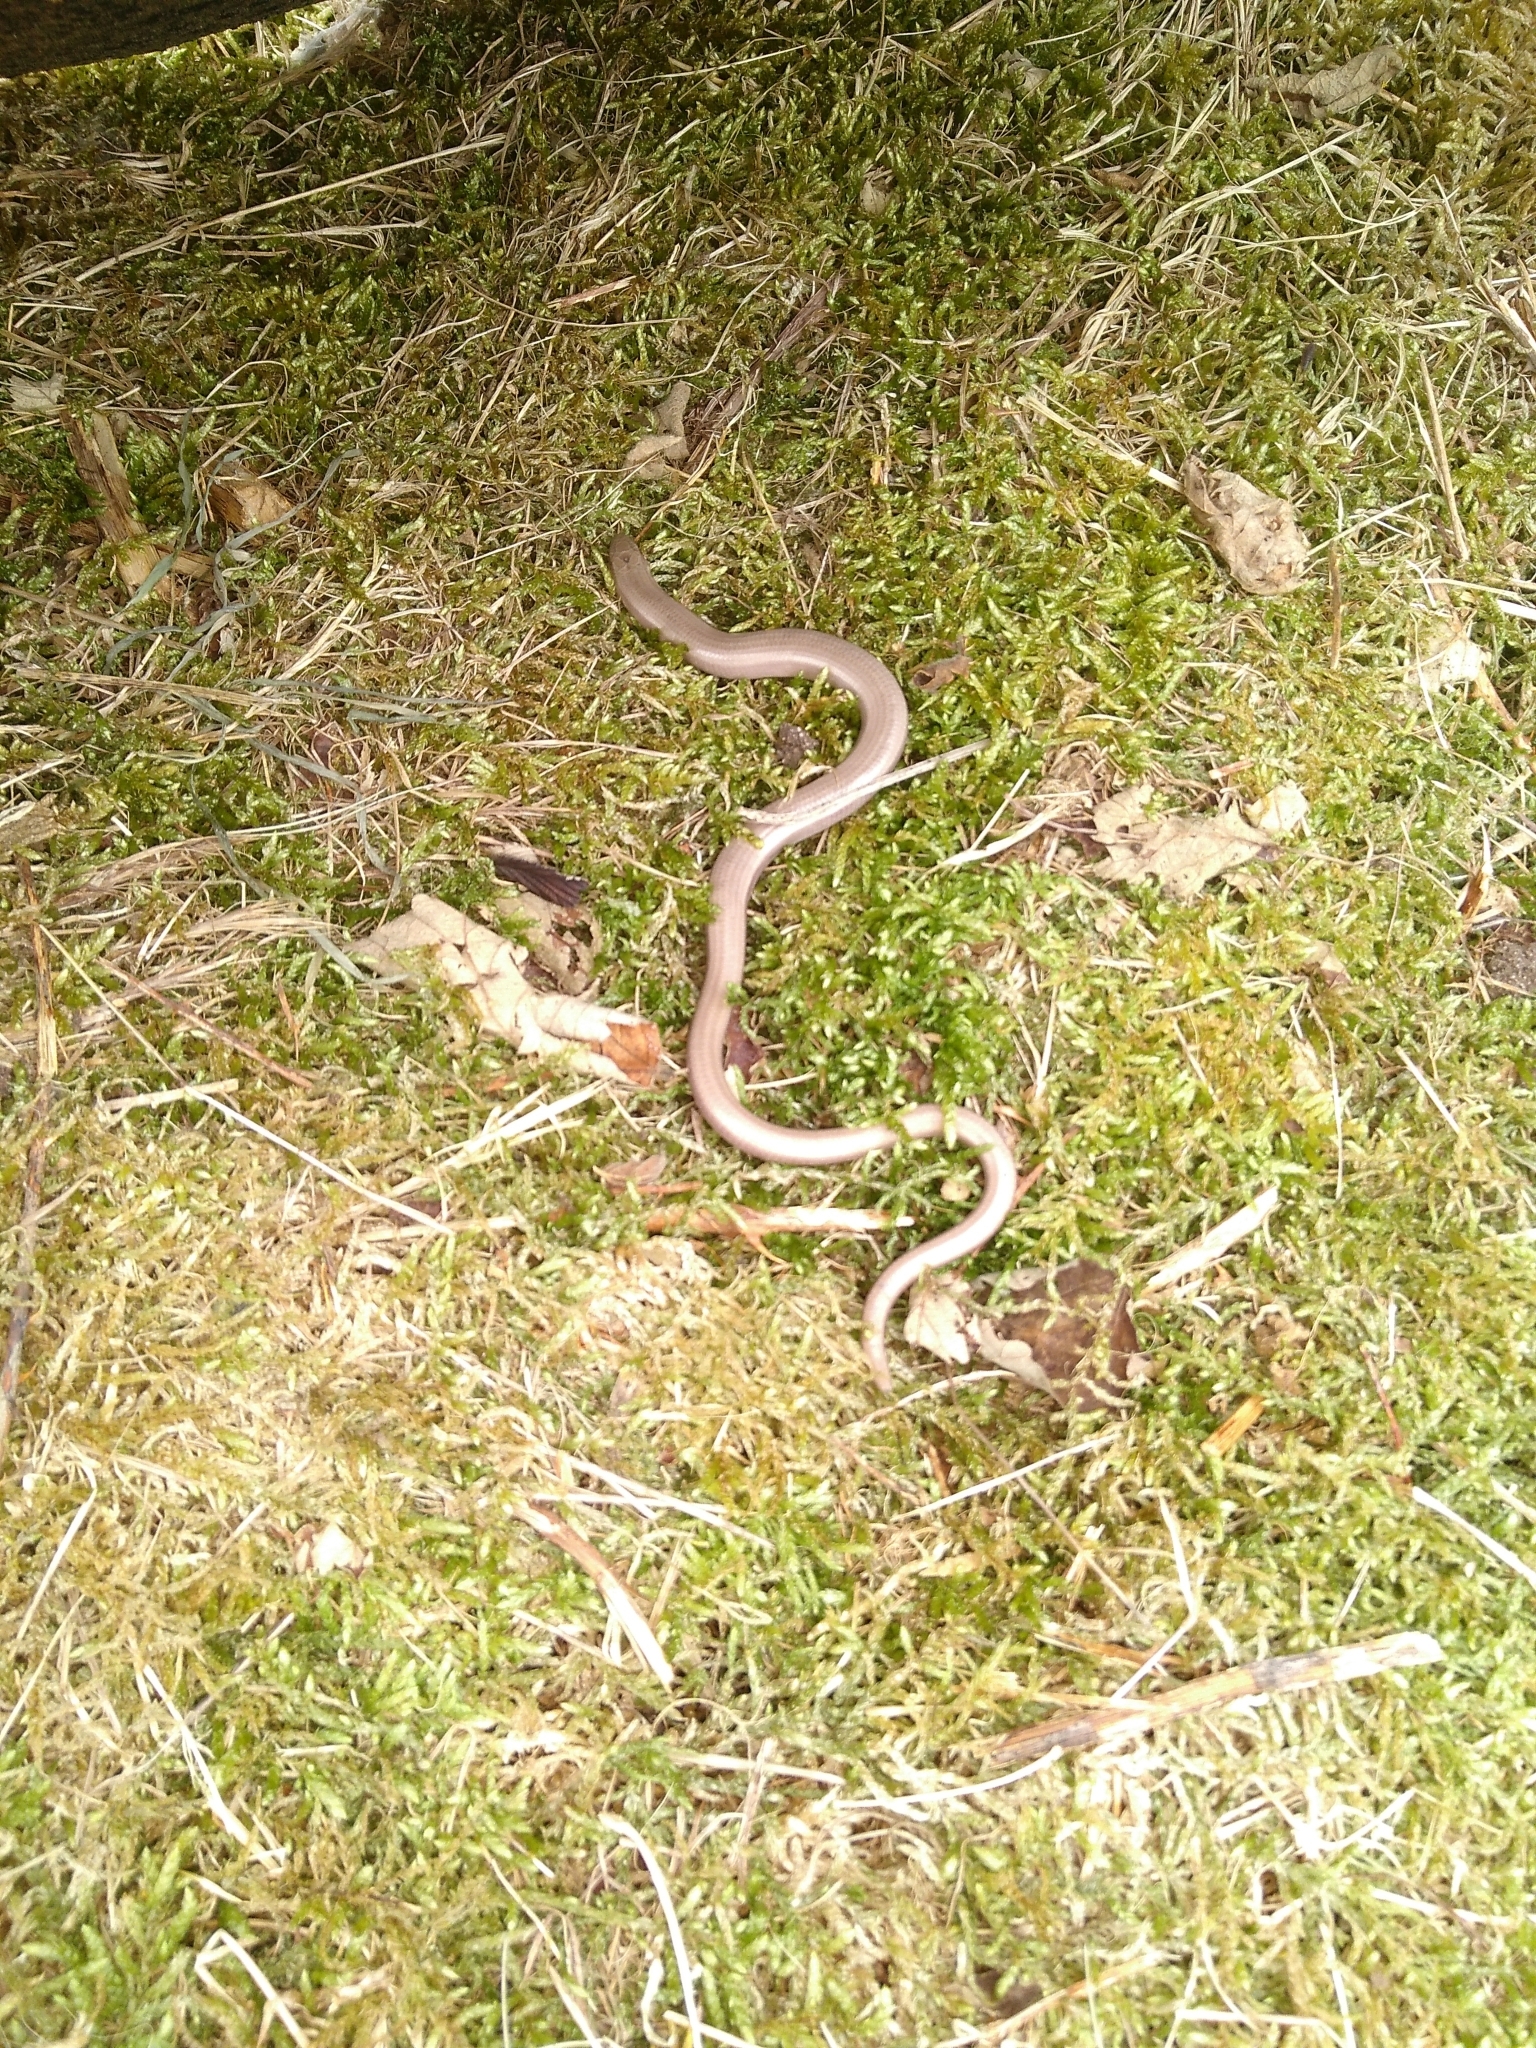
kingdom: Animalia
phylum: Chordata
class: Squamata
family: Anguidae
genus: Anguis
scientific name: Anguis fragilis
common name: Slow worm
